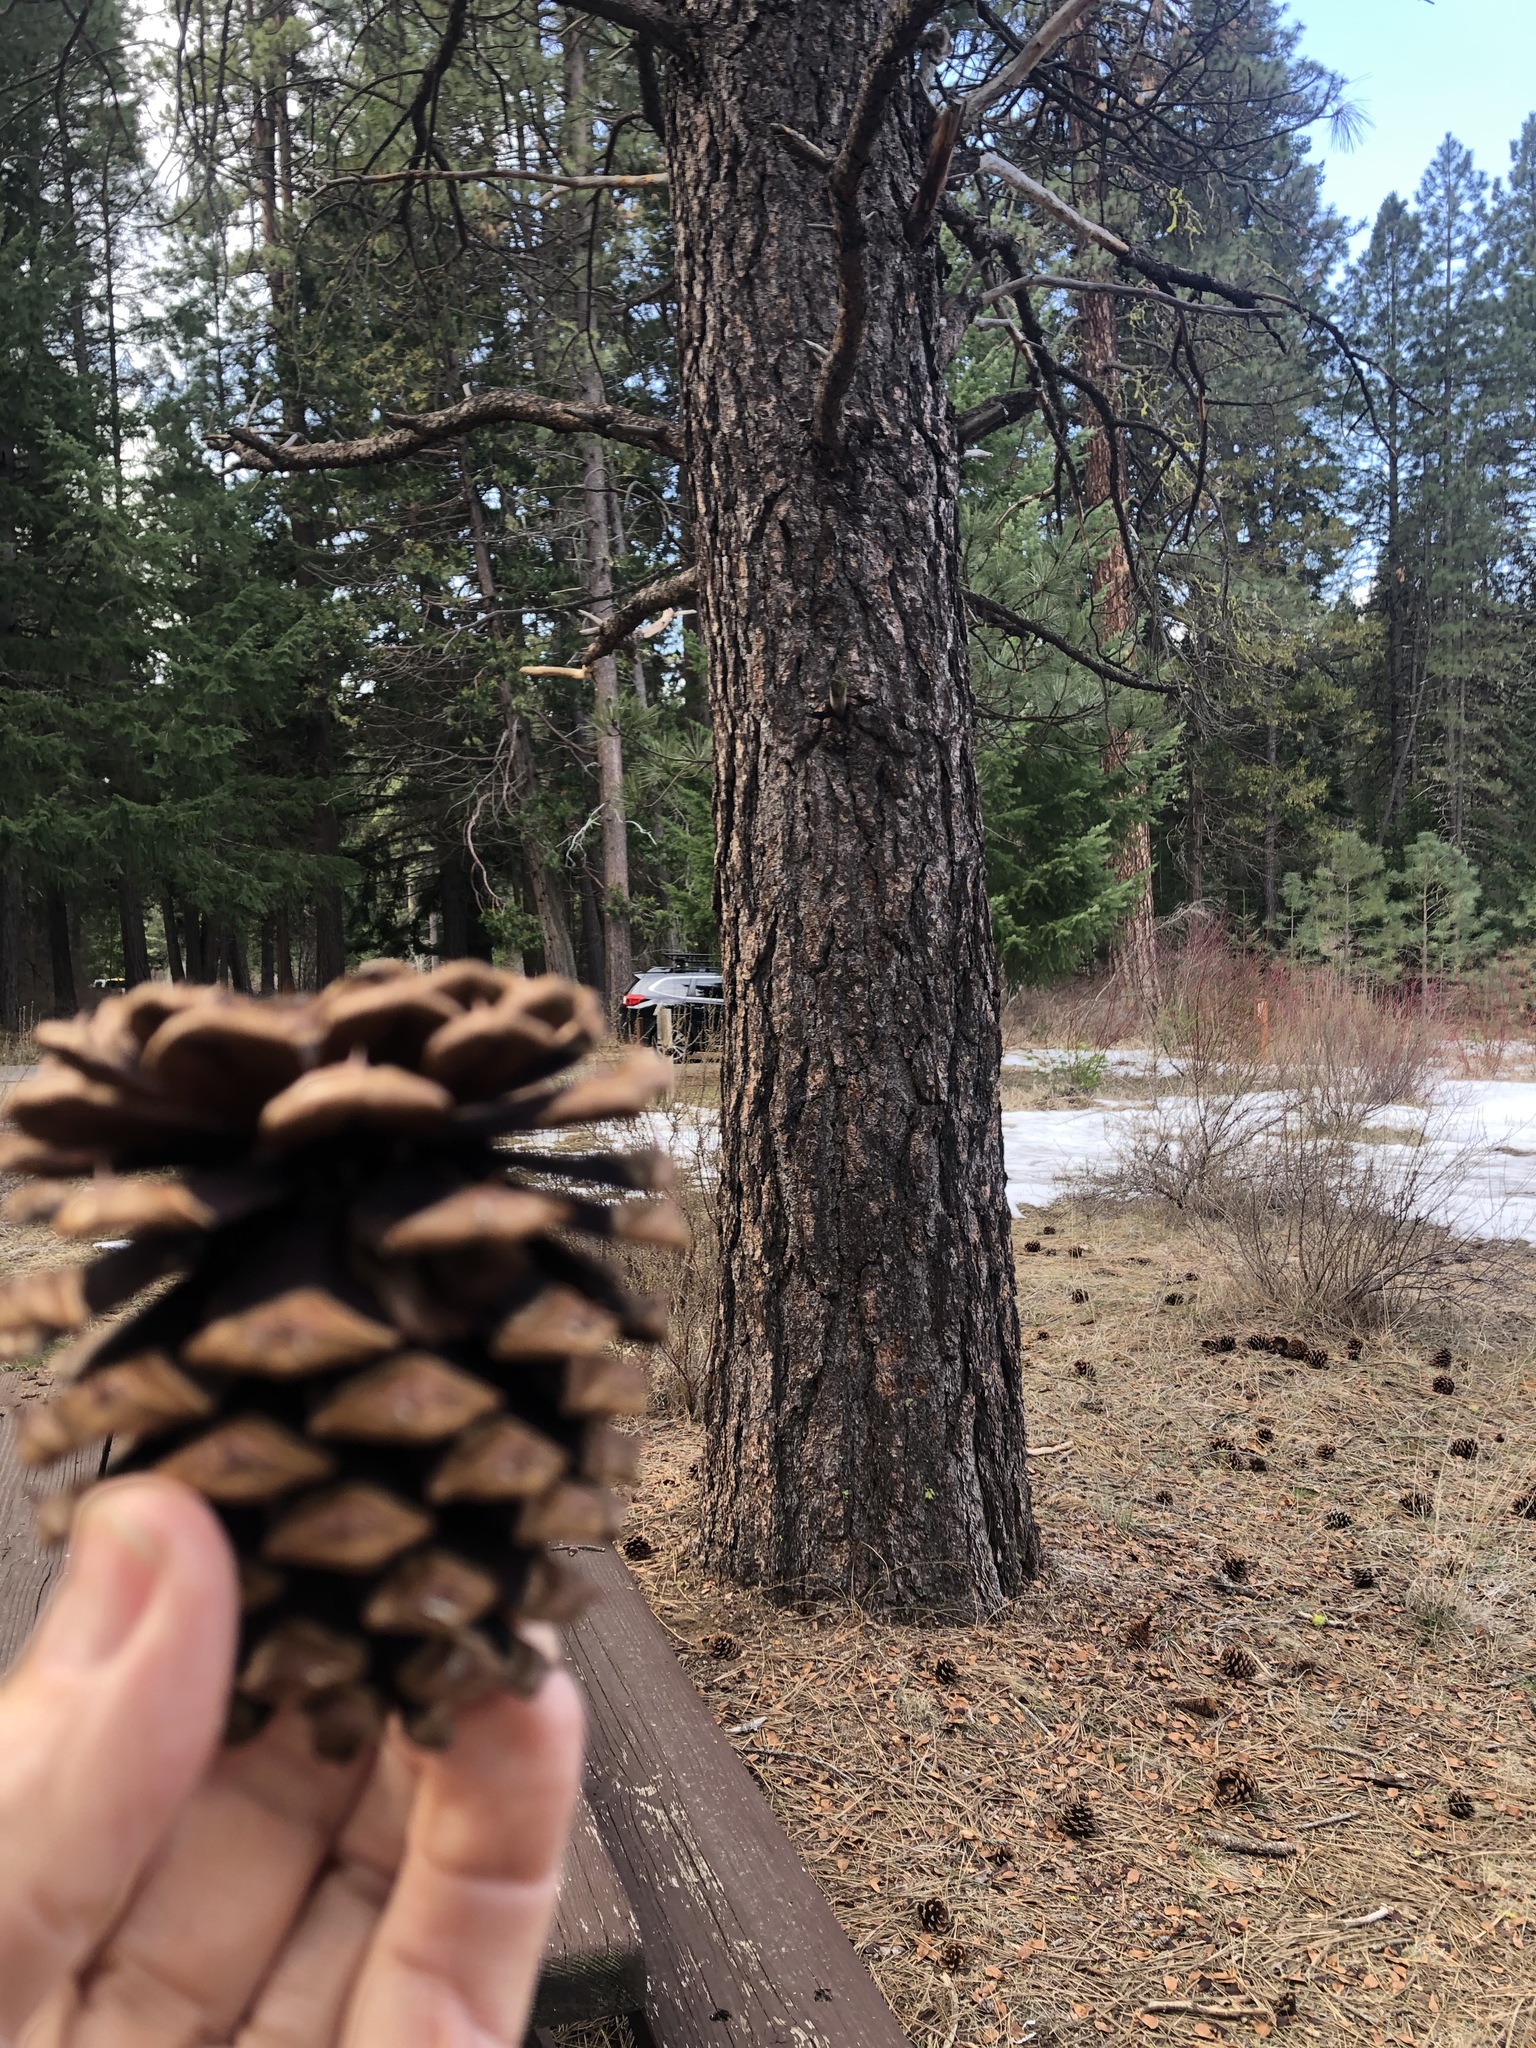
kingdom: Plantae
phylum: Tracheophyta
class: Pinopsida
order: Pinales
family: Pinaceae
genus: Pinus
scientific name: Pinus ponderosa
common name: Western yellow-pine
